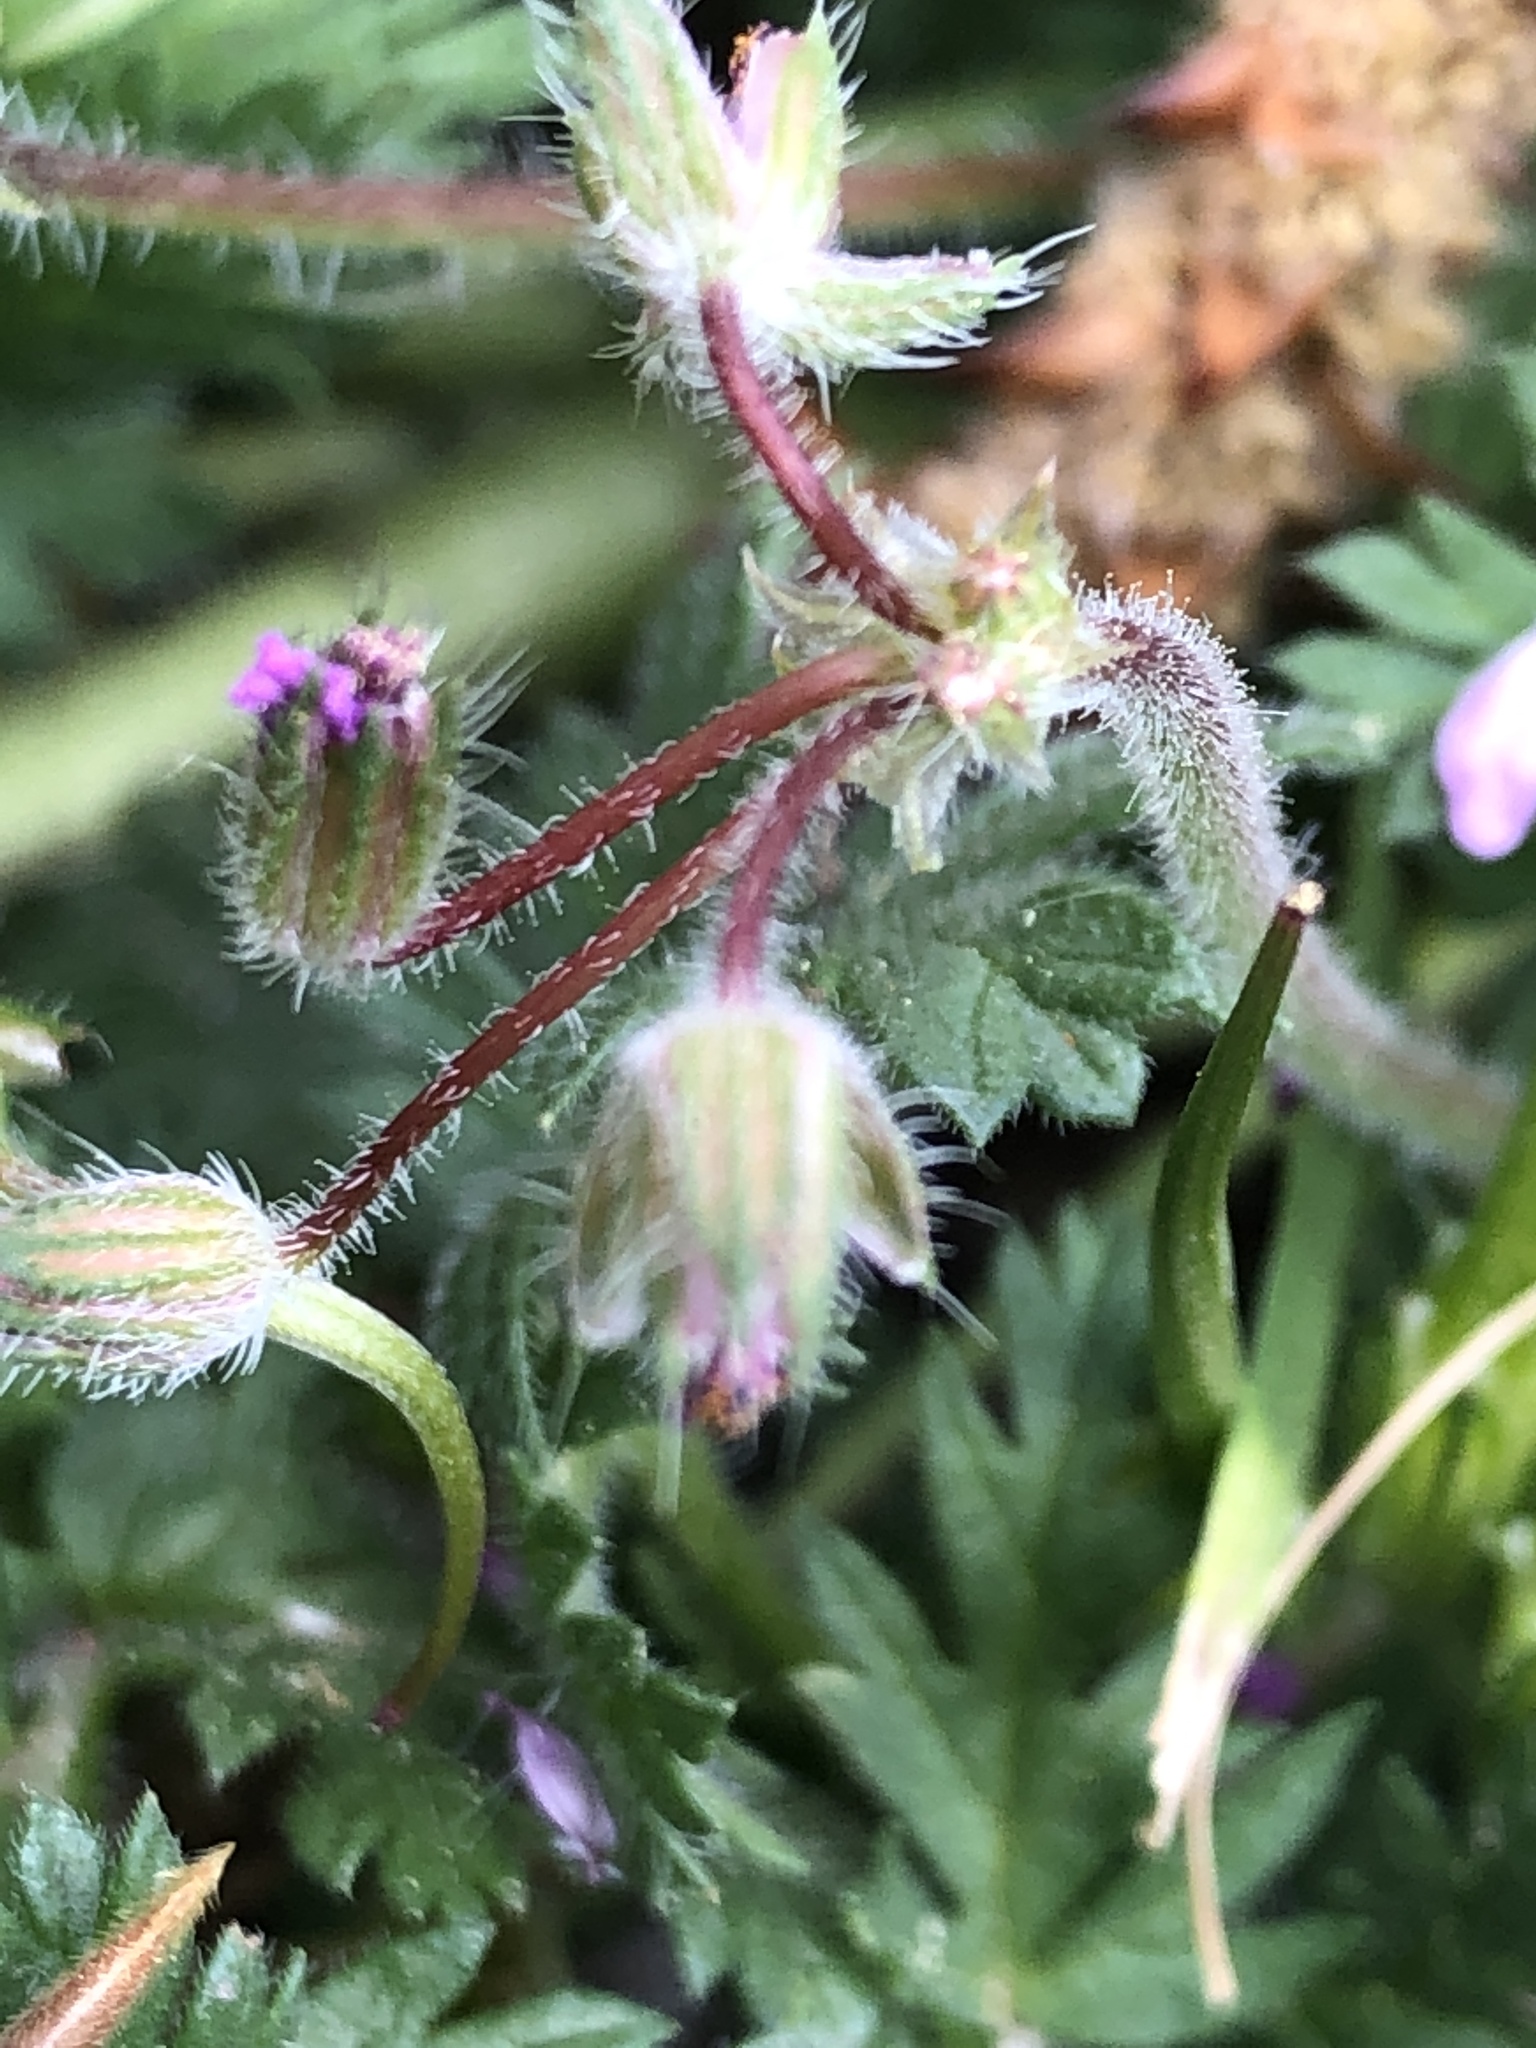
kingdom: Plantae
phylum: Tracheophyta
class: Magnoliopsida
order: Geraniales
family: Geraniaceae
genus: Erodium
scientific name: Erodium cicutarium
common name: Common stork's-bill
